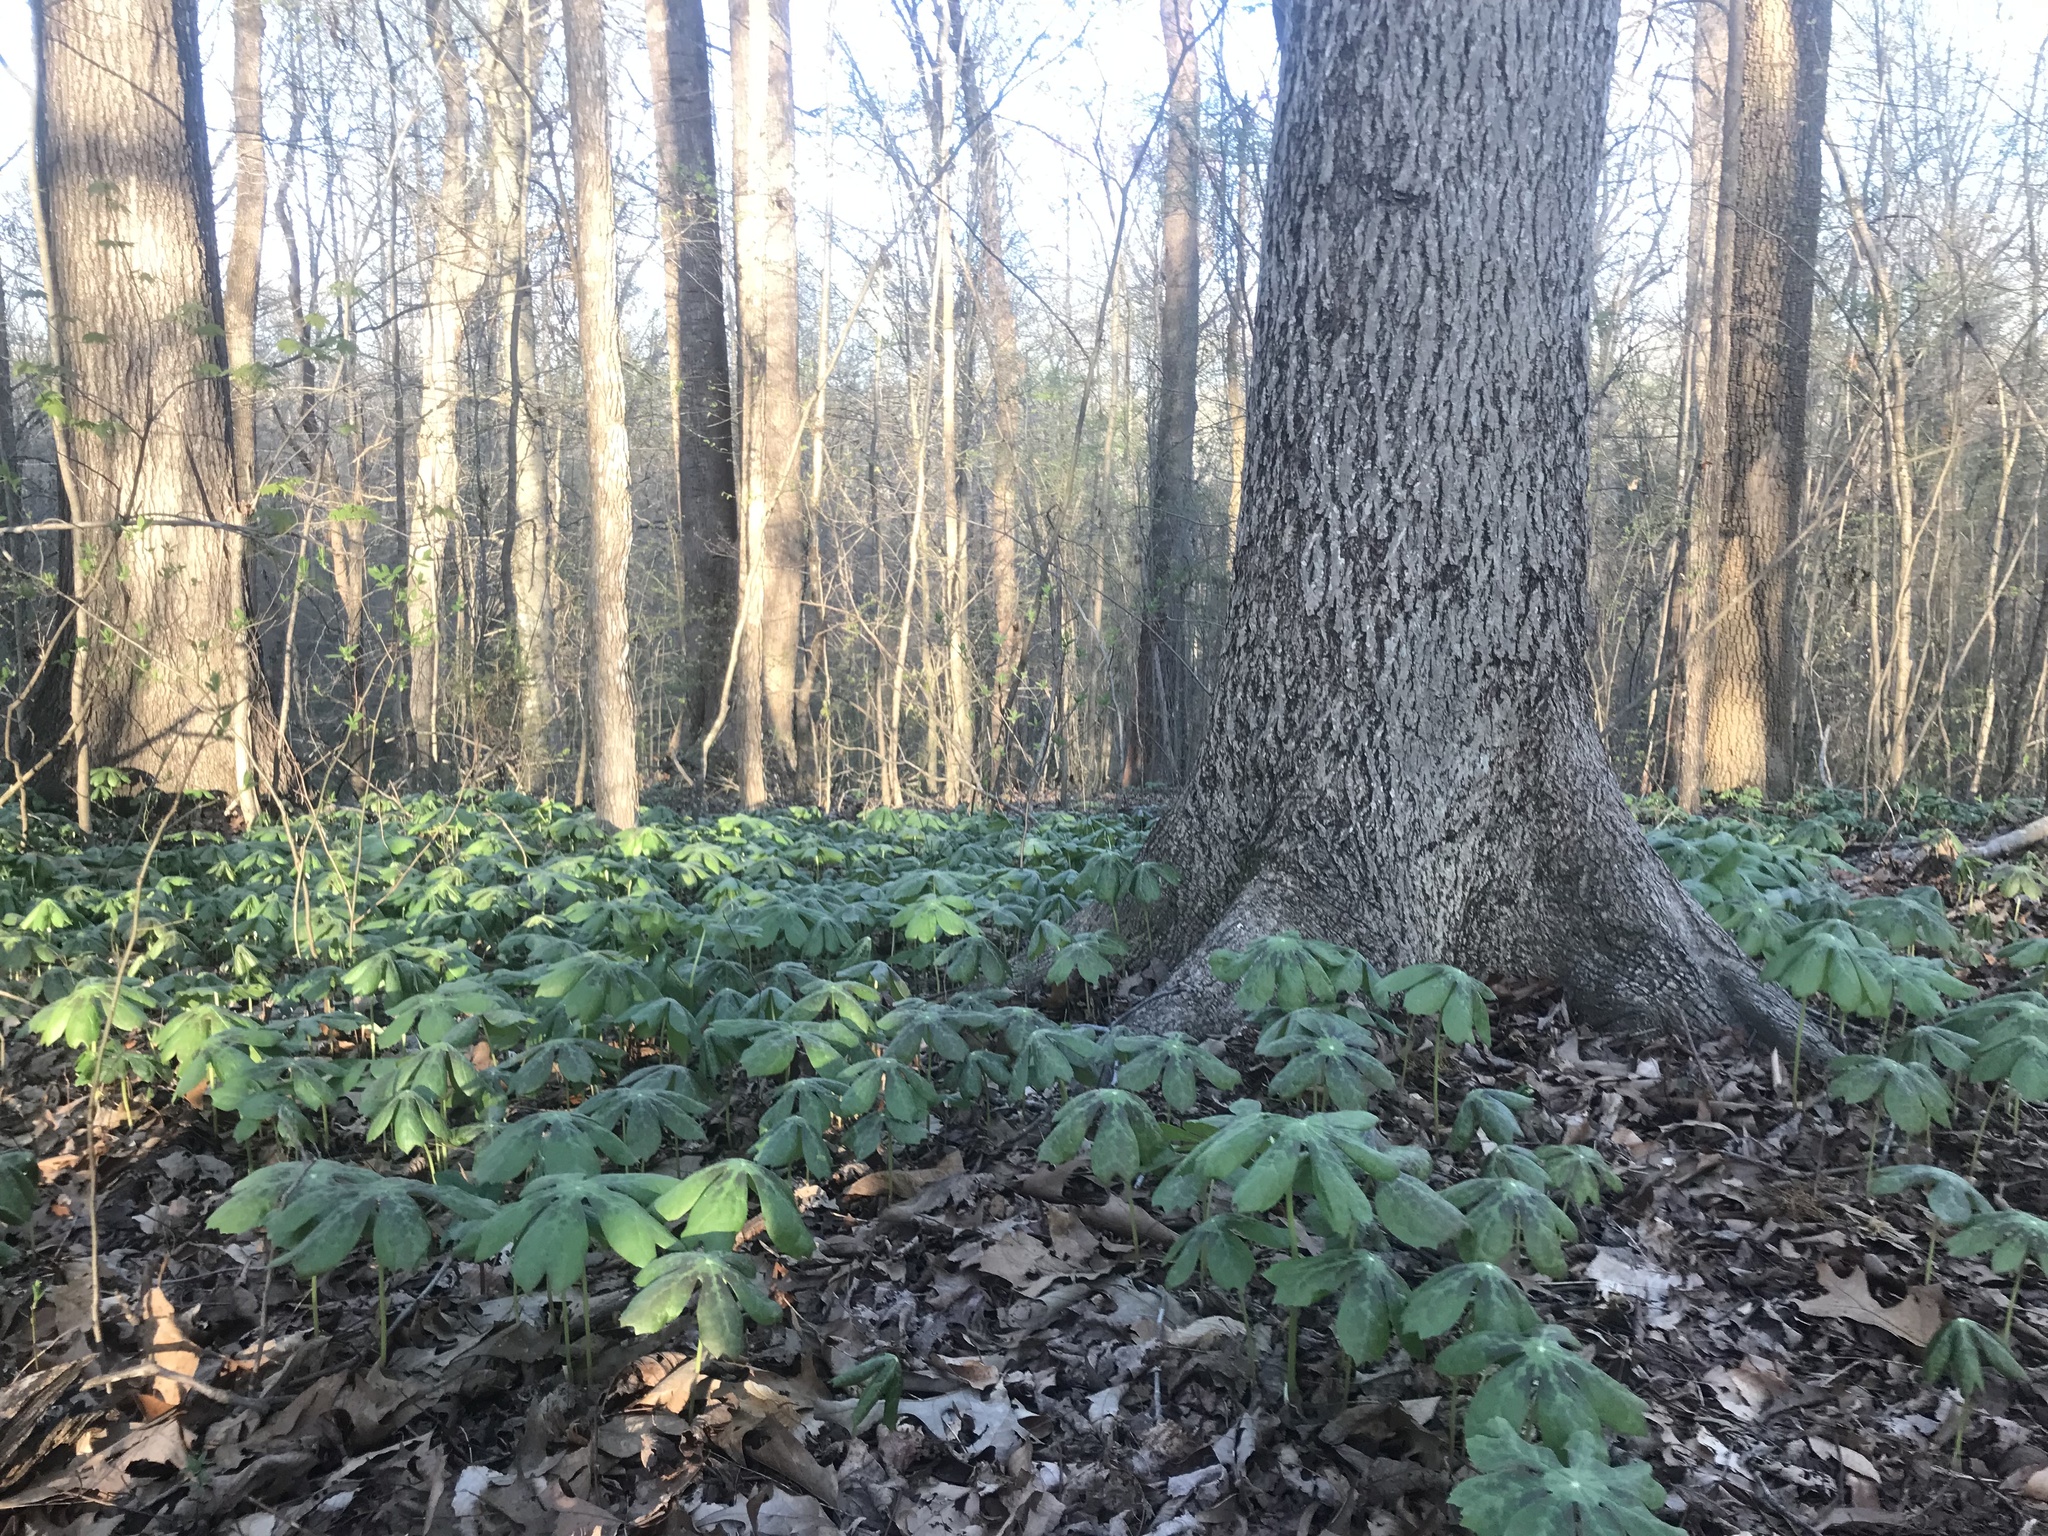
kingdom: Plantae
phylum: Tracheophyta
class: Magnoliopsida
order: Ranunculales
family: Berberidaceae
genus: Podophyllum
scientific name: Podophyllum peltatum
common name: Wild mandrake
